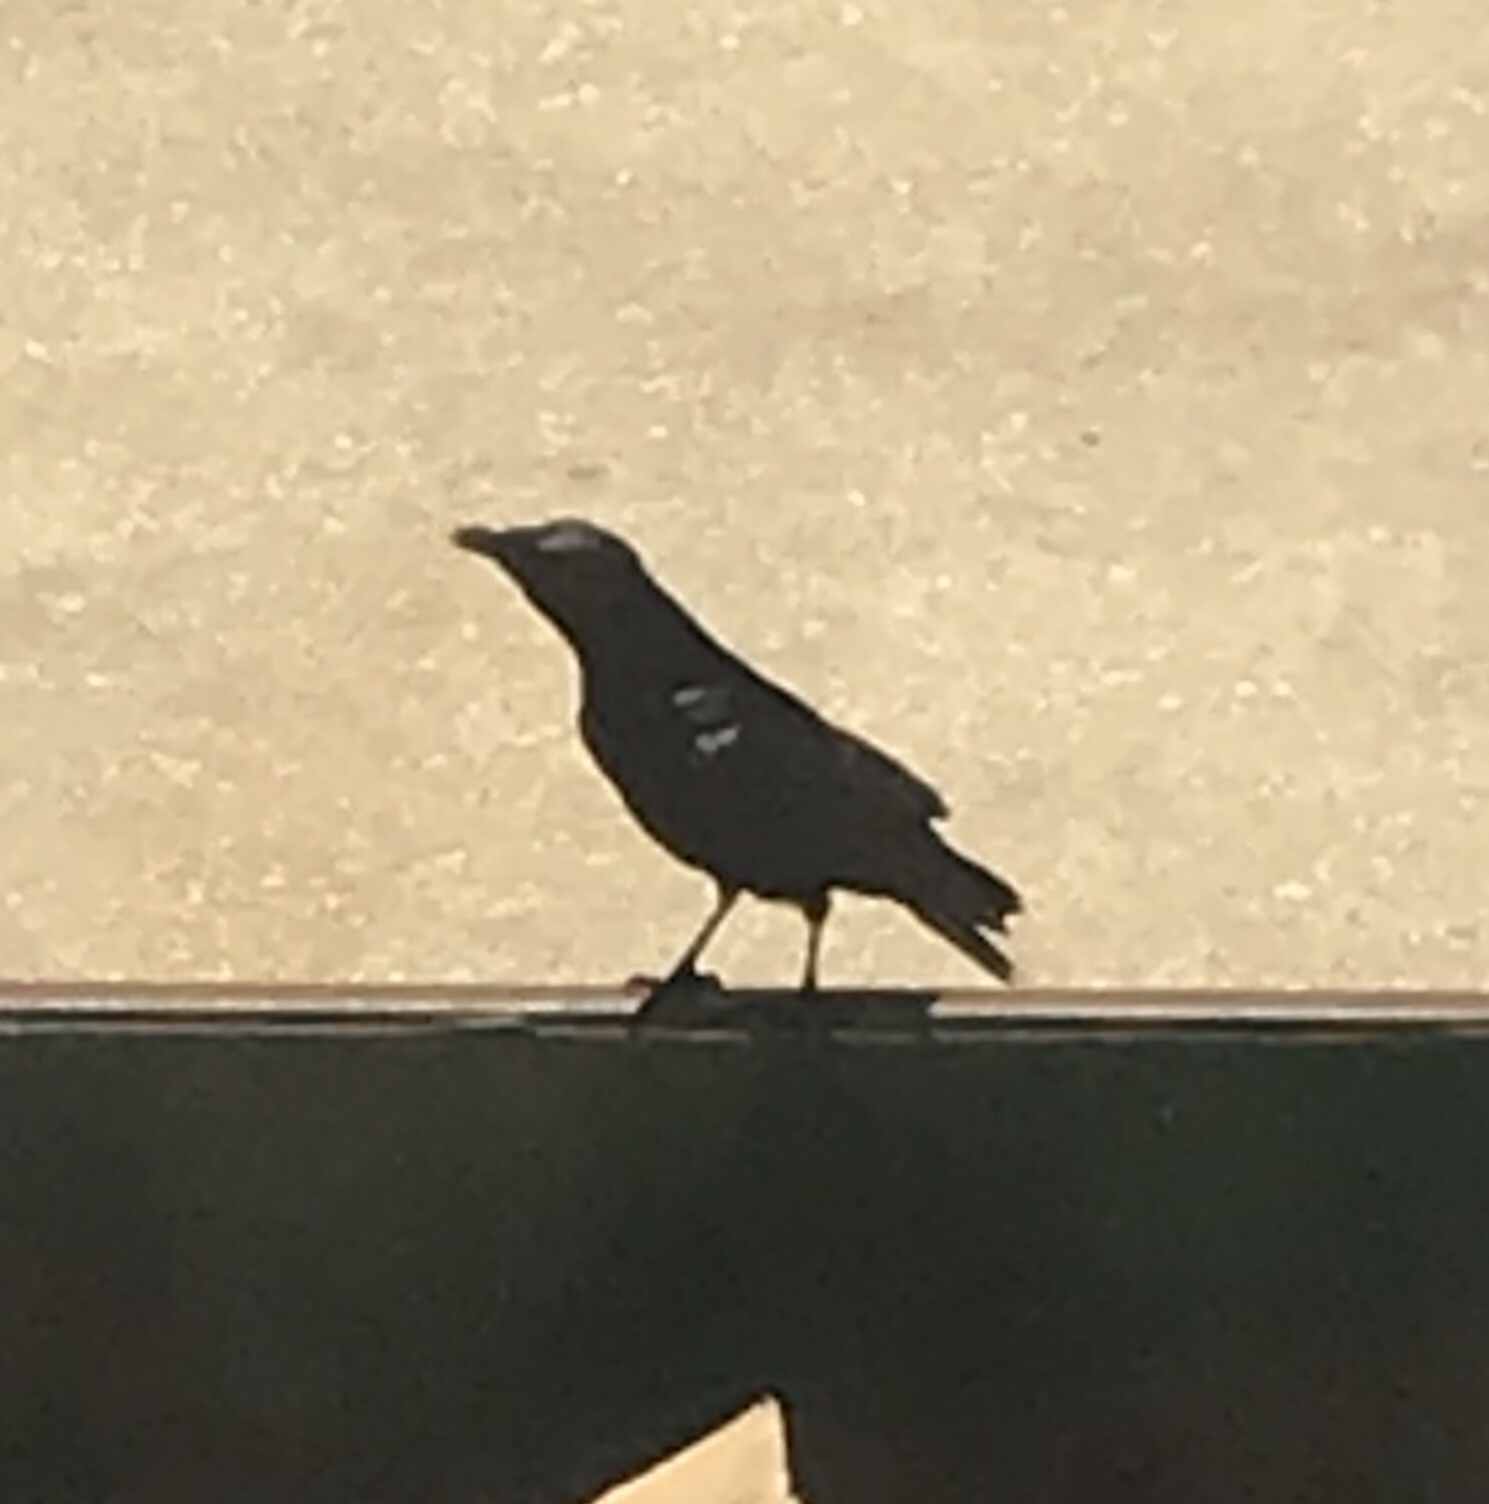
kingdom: Animalia
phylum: Chordata
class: Aves
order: Passeriformes
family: Corvidae
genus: Corvus
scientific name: Corvus
